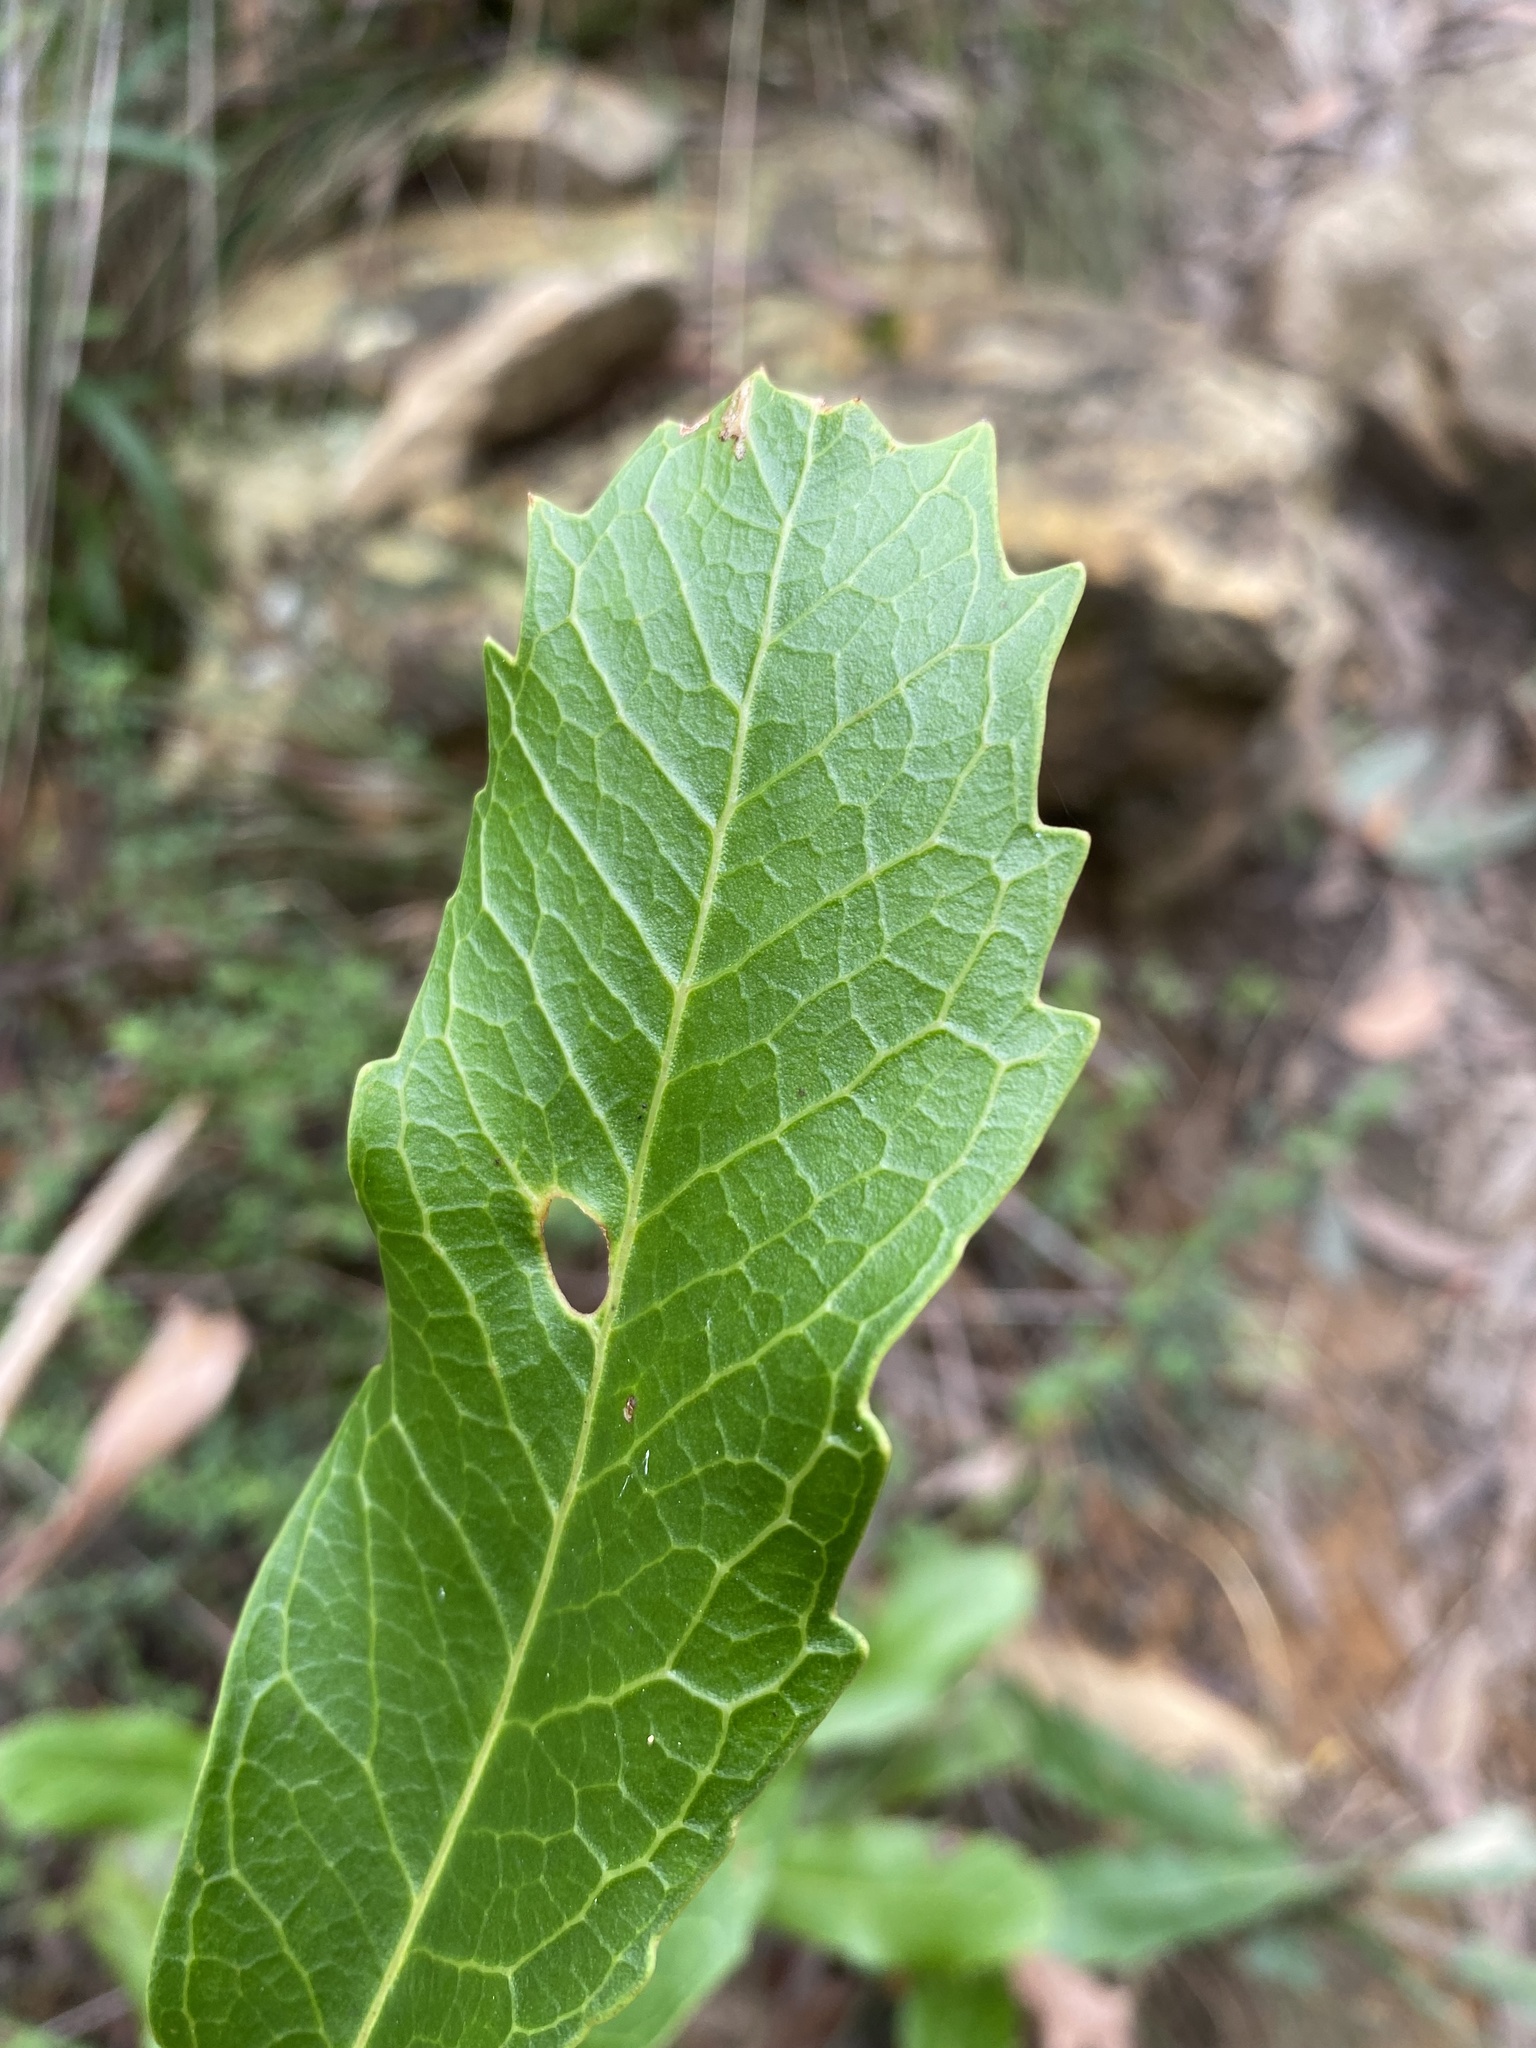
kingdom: Plantae
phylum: Tracheophyta
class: Magnoliopsida
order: Proteales
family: Proteaceae
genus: Telopea
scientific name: Telopea speciosissima
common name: New south wales waratah
